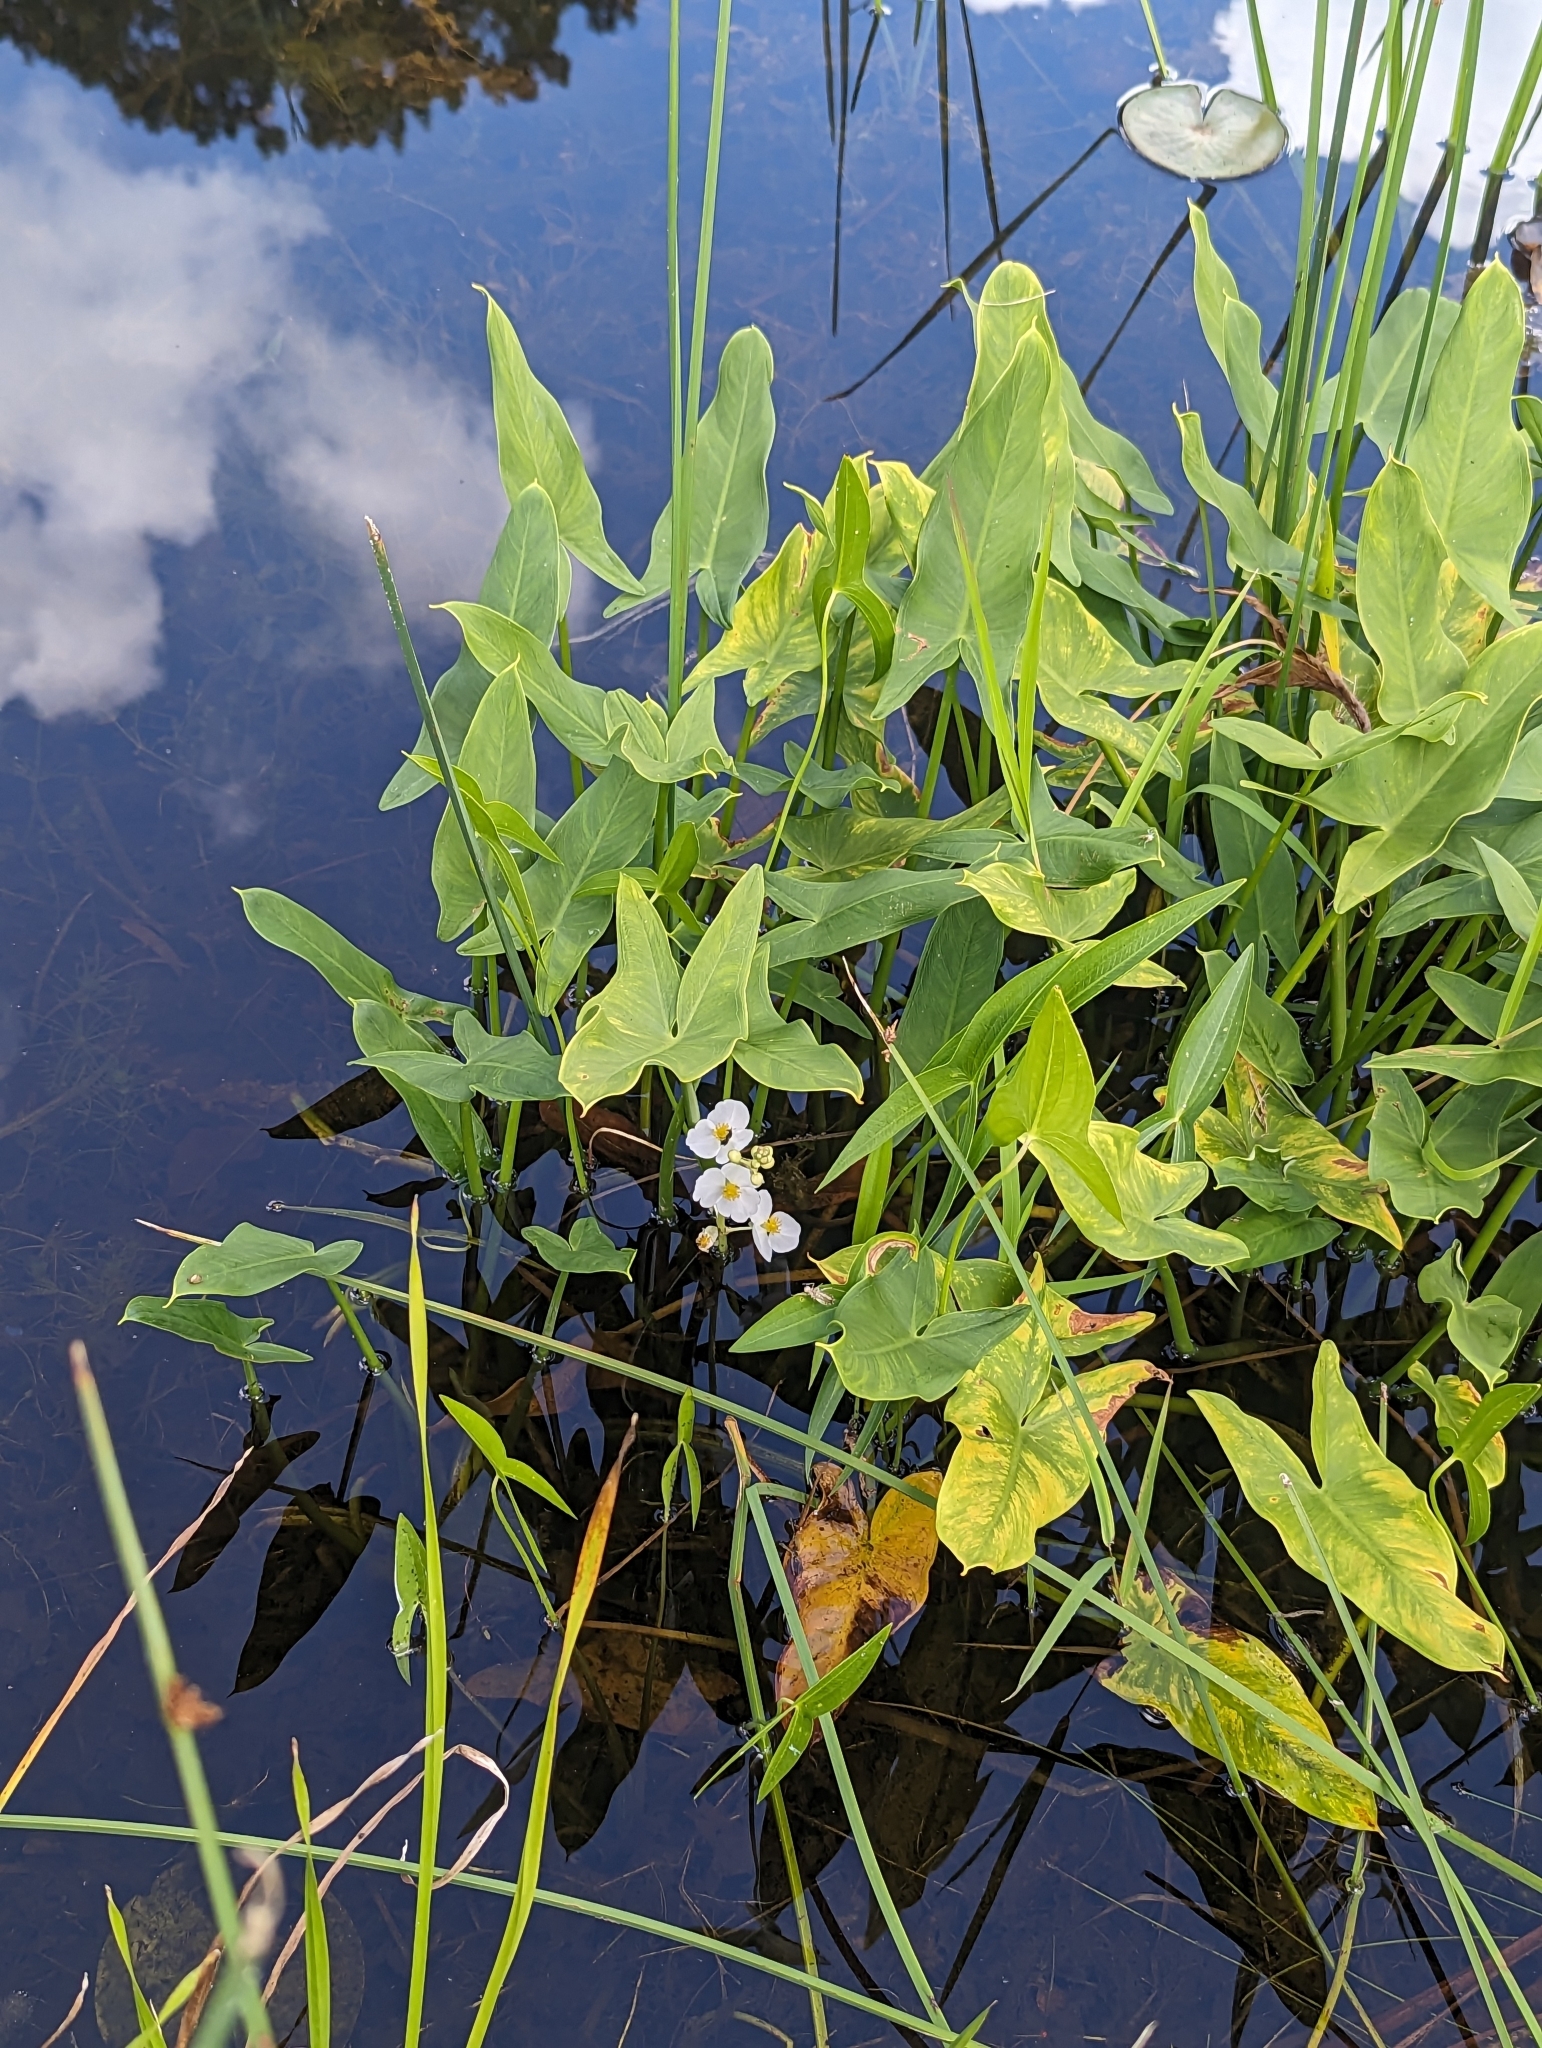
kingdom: Plantae
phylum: Tracheophyta
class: Liliopsida
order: Alismatales
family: Alismataceae
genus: Sagittaria
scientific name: Sagittaria latifolia
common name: Duck-potato
